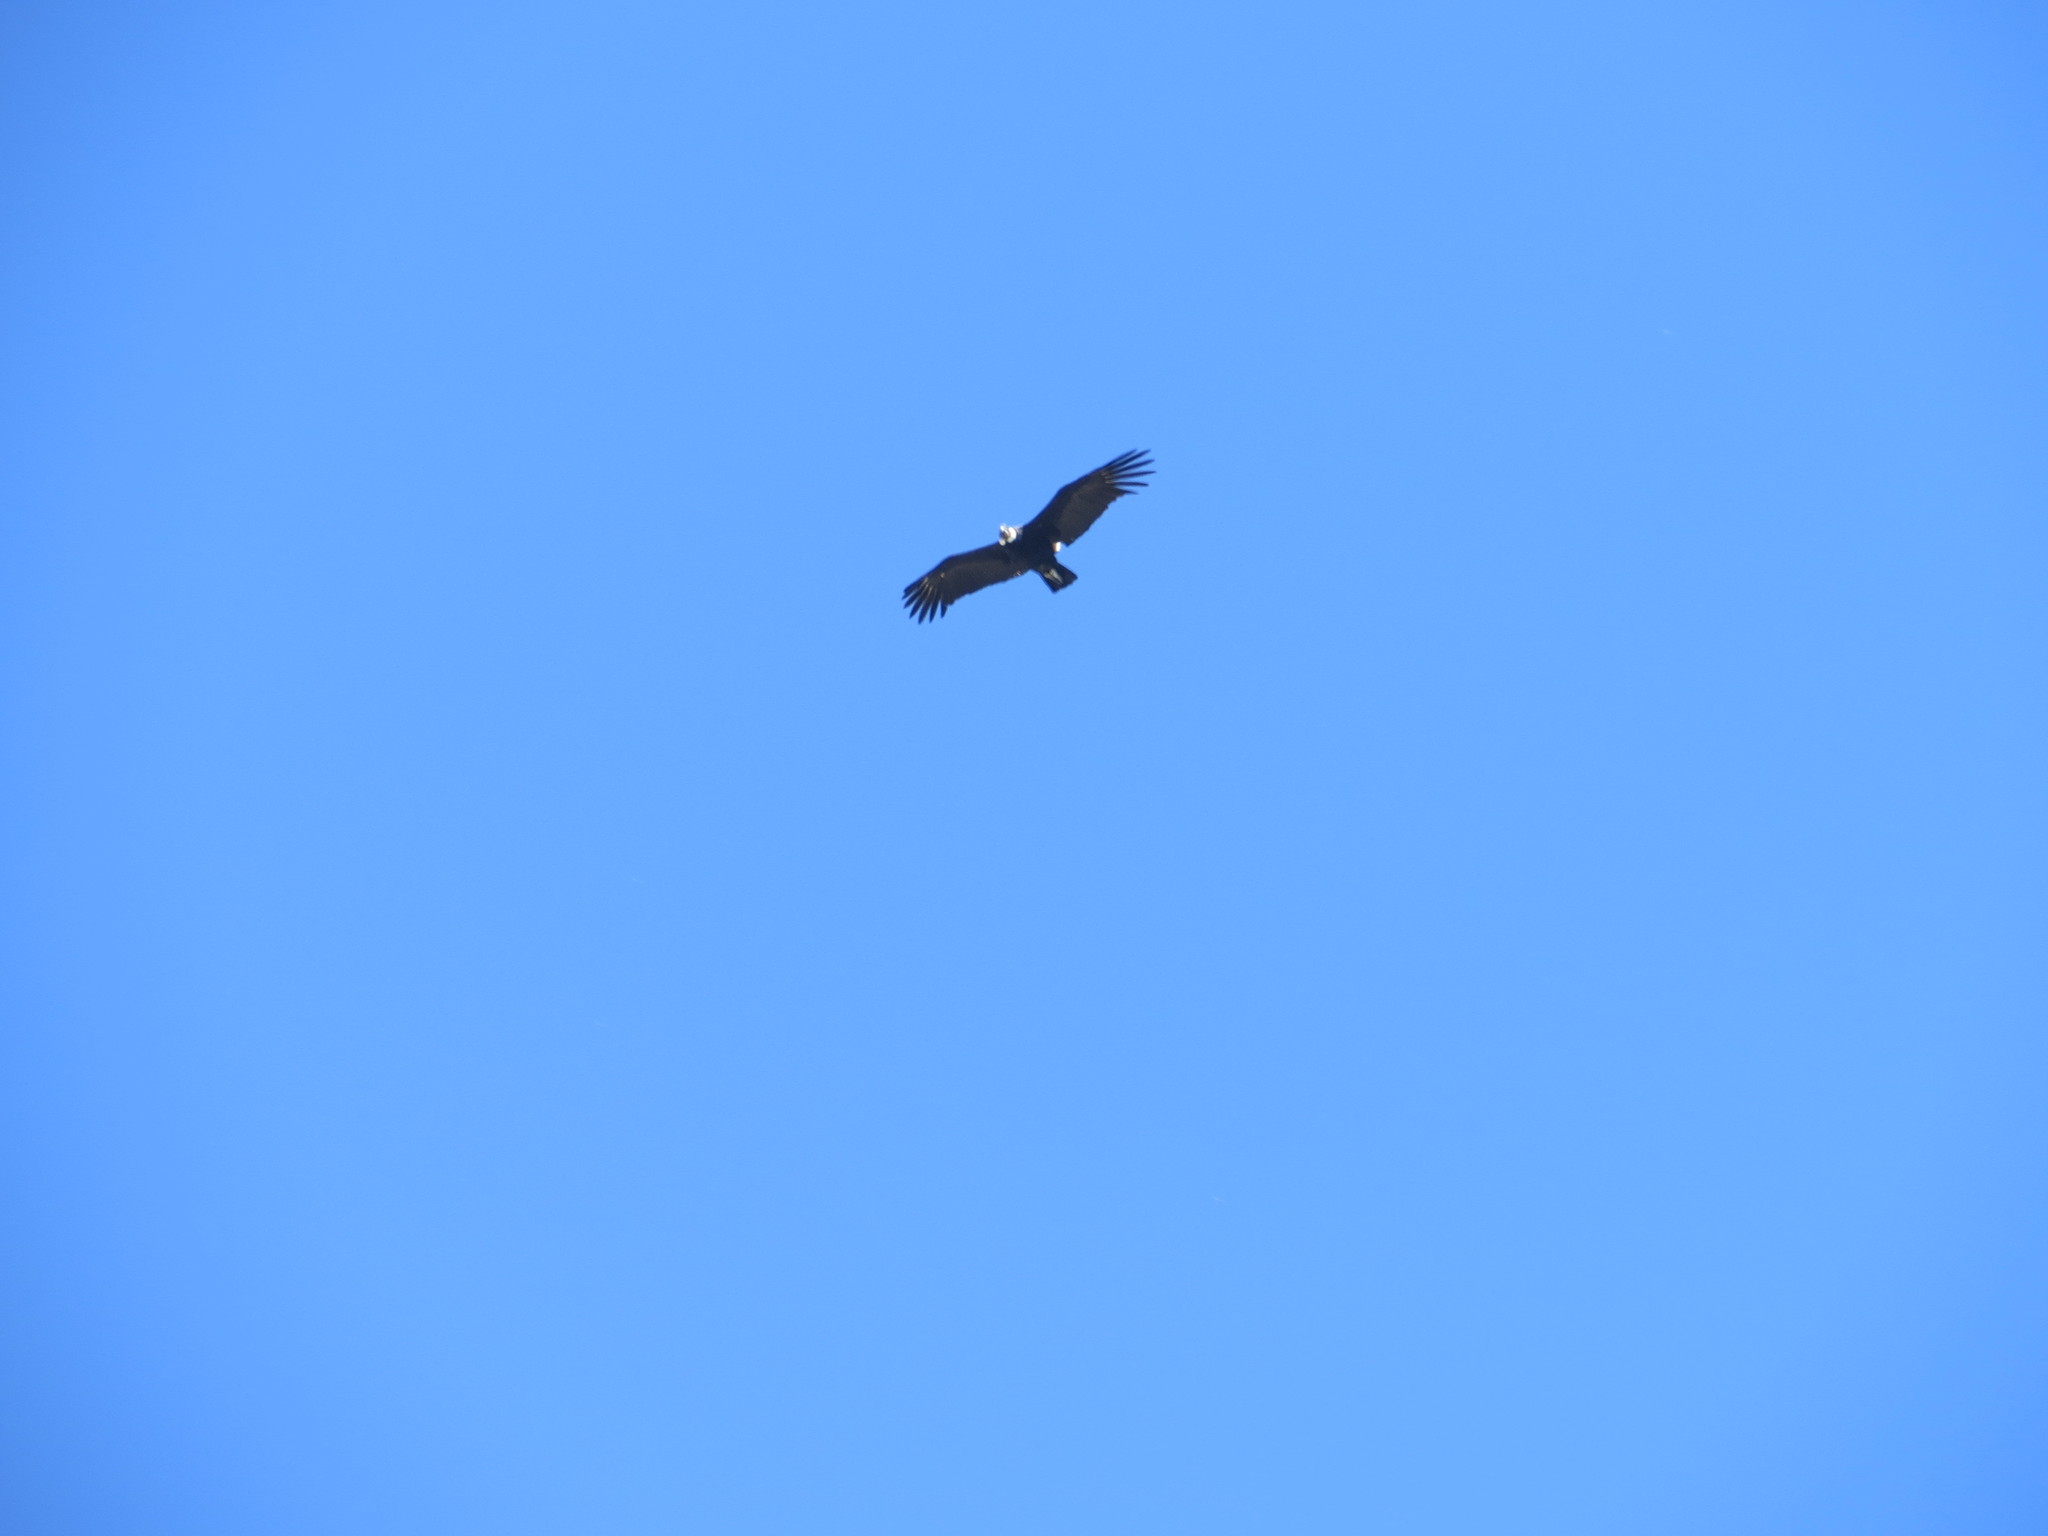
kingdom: Animalia
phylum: Chordata
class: Aves
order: Accipitriformes
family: Cathartidae
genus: Vultur
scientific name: Vultur gryphus
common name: Andean condor
